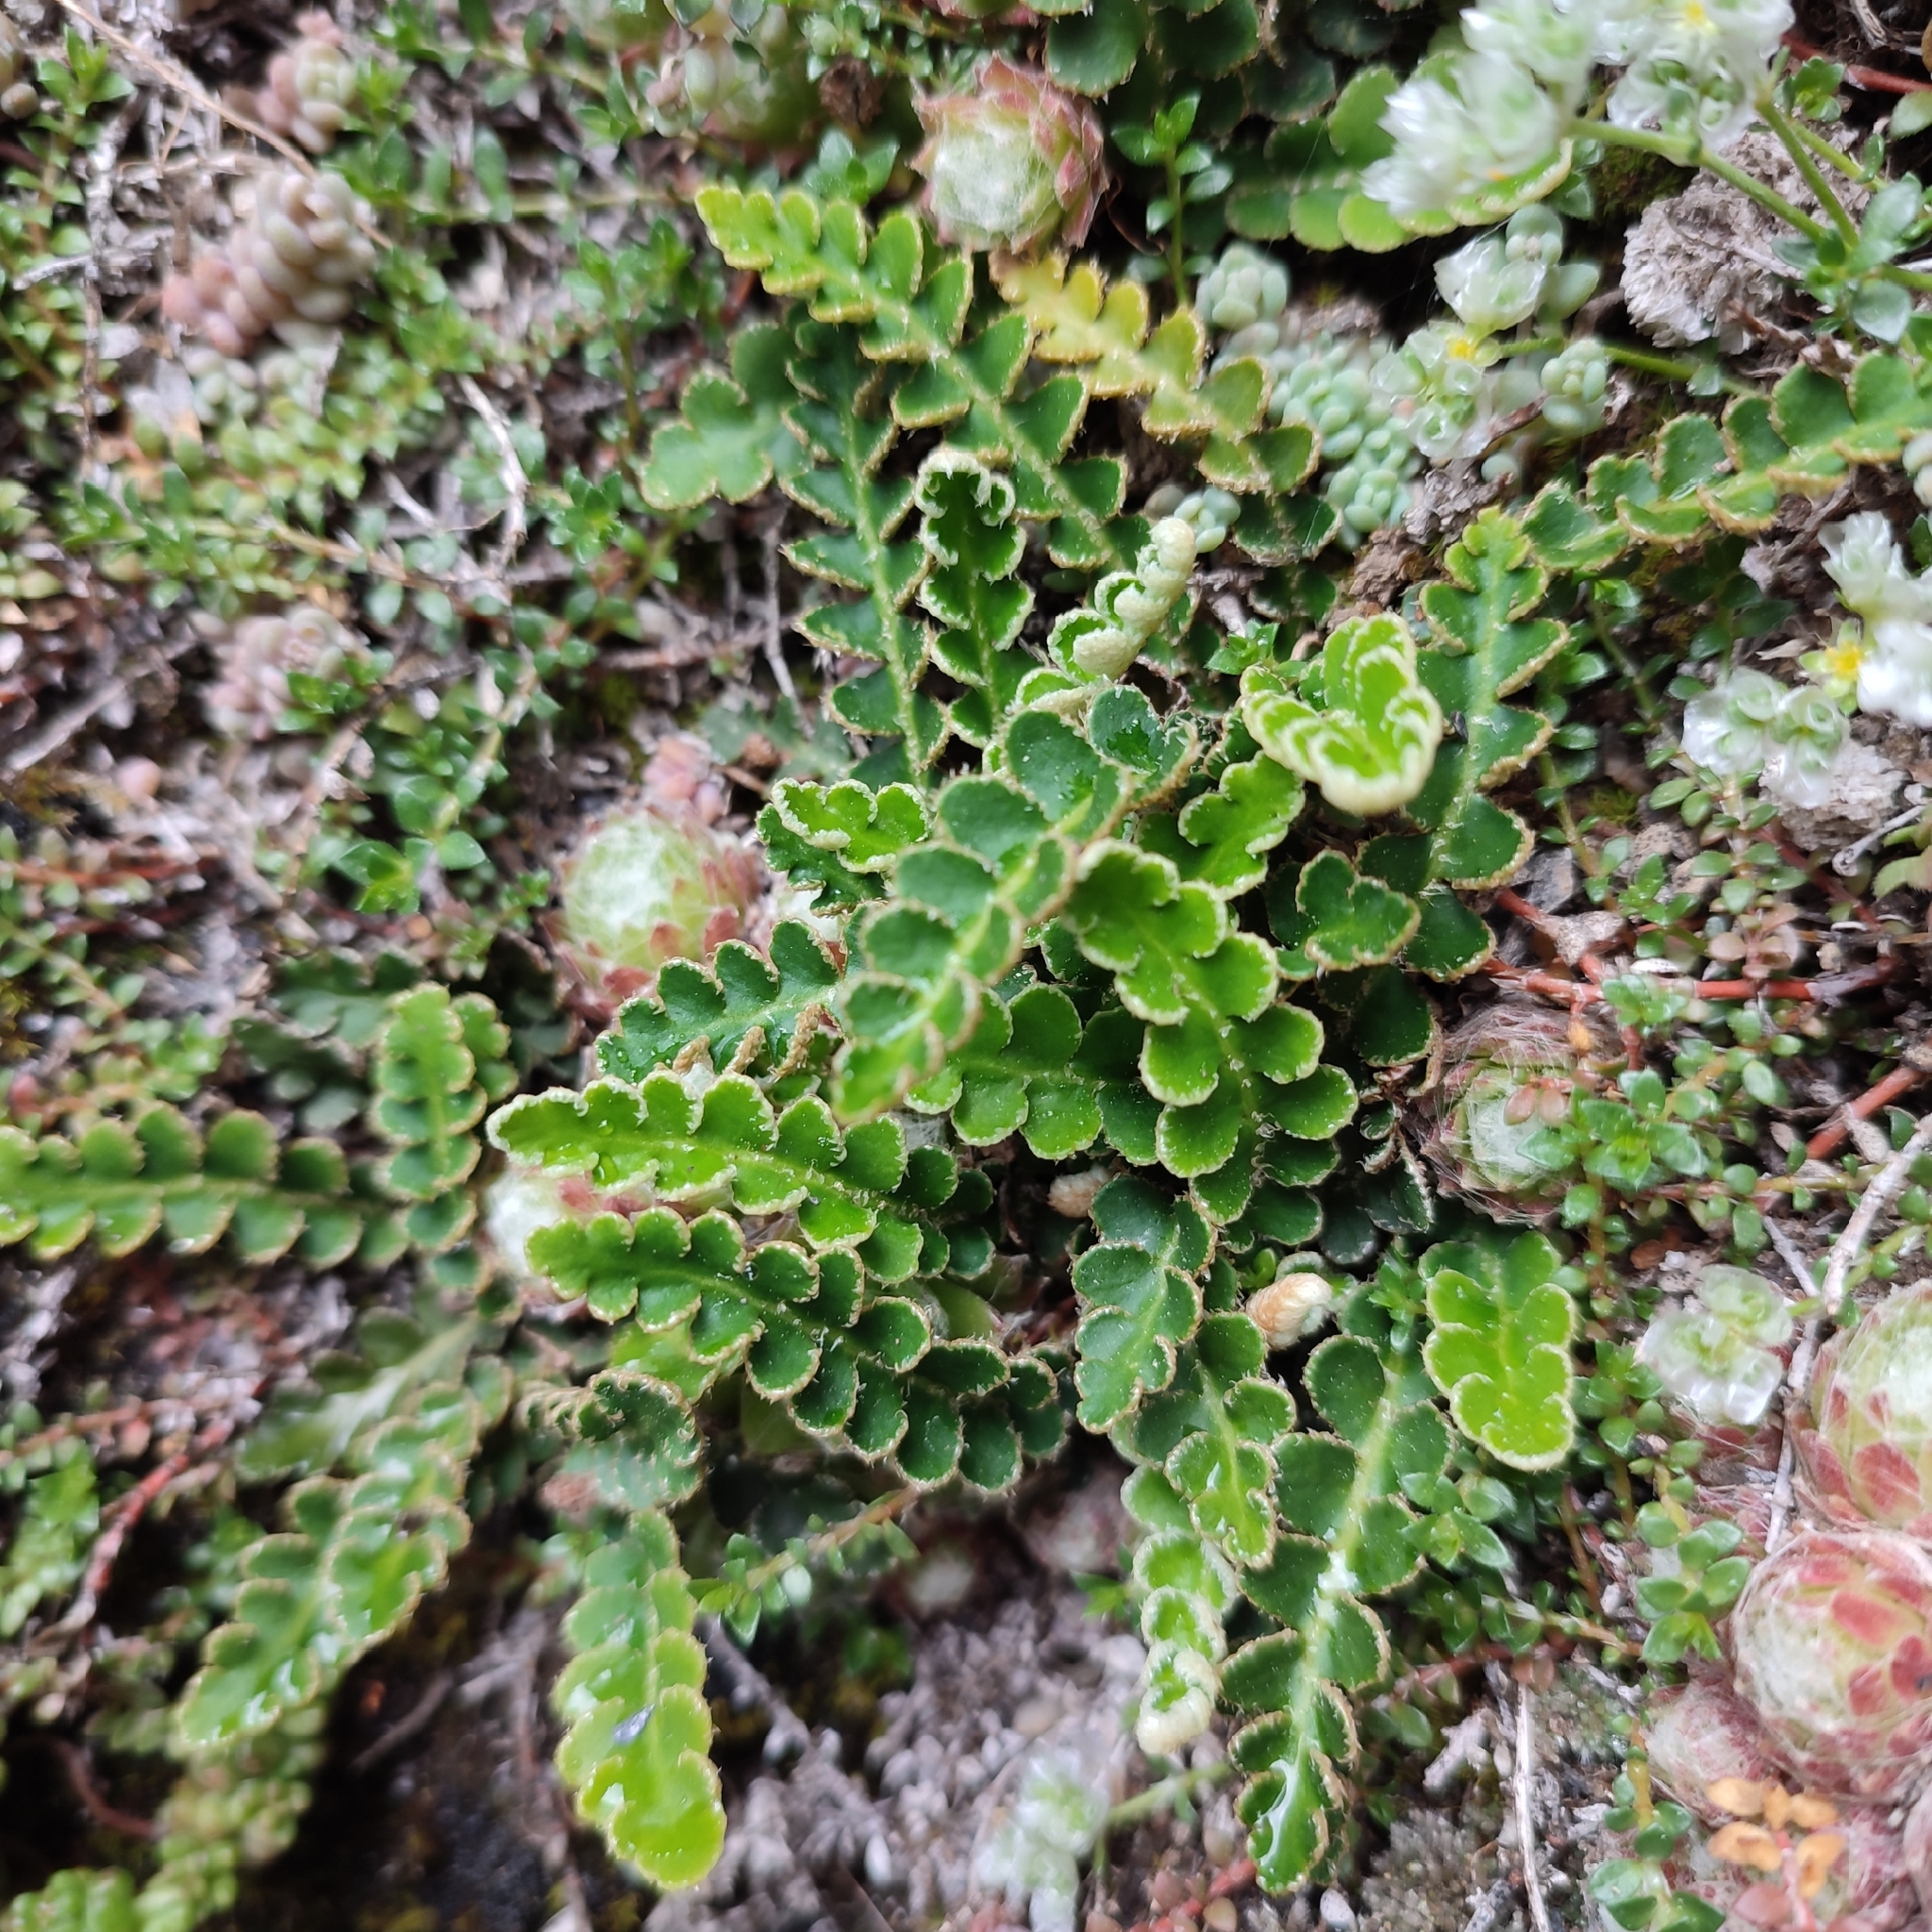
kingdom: Plantae
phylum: Tracheophyta
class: Polypodiopsida
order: Polypodiales
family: Aspleniaceae
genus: Asplenium
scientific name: Asplenium ceterach
